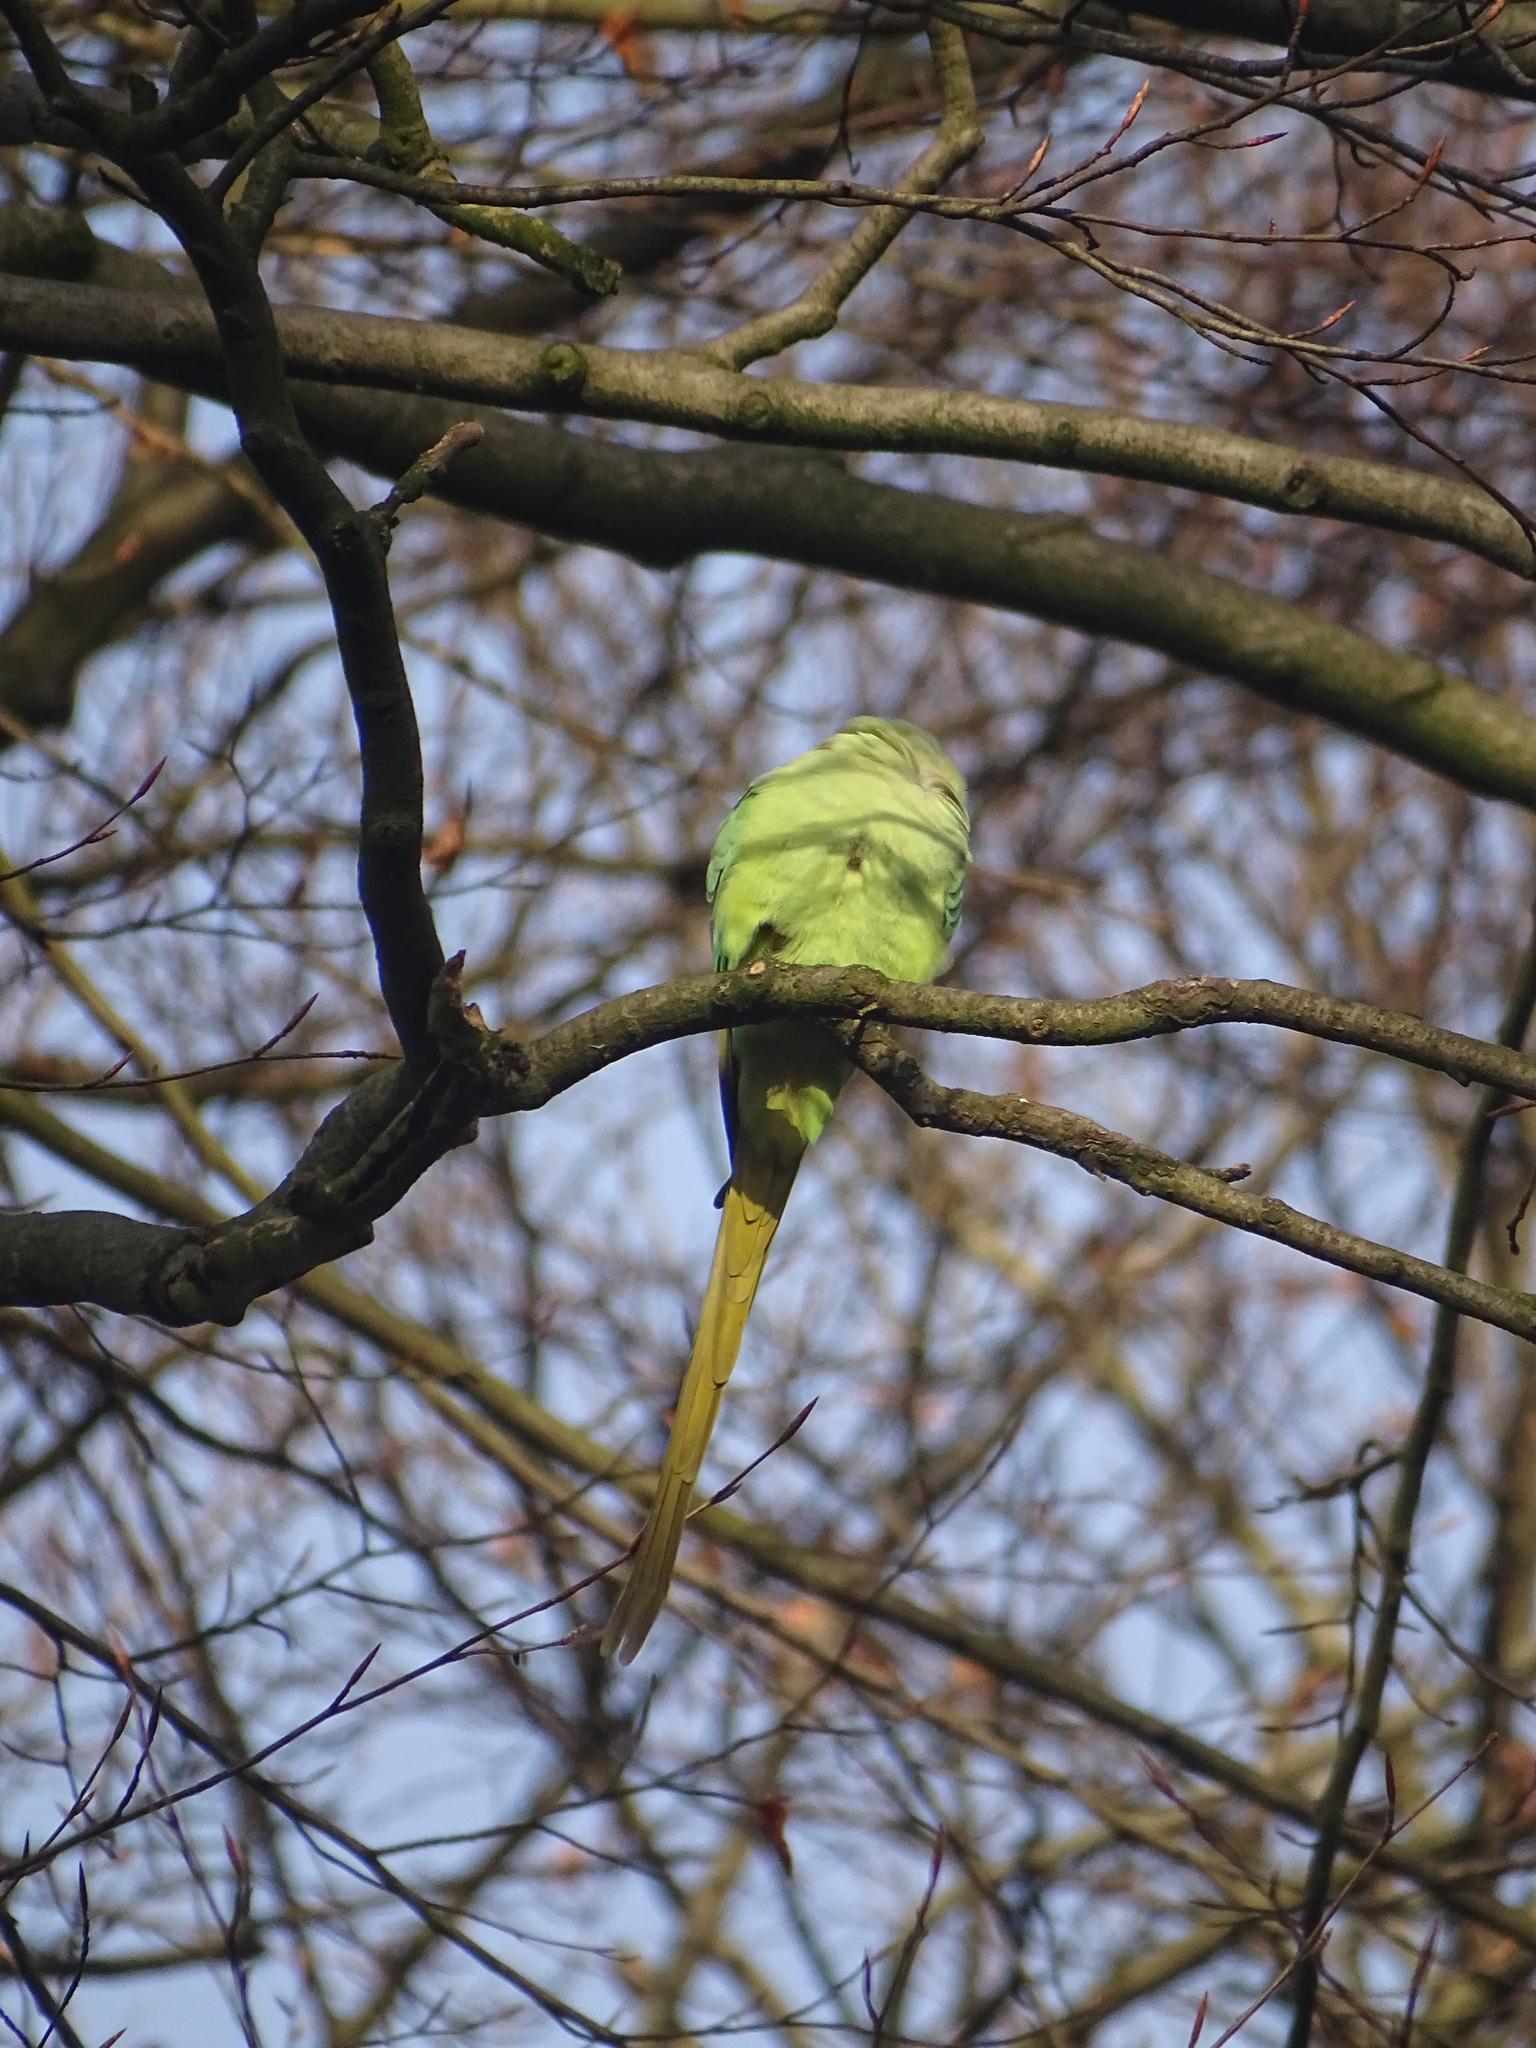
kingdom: Animalia
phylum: Chordata
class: Aves
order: Psittaciformes
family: Psittacidae
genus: Psittacula
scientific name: Psittacula krameri
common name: Rose-ringed parakeet
